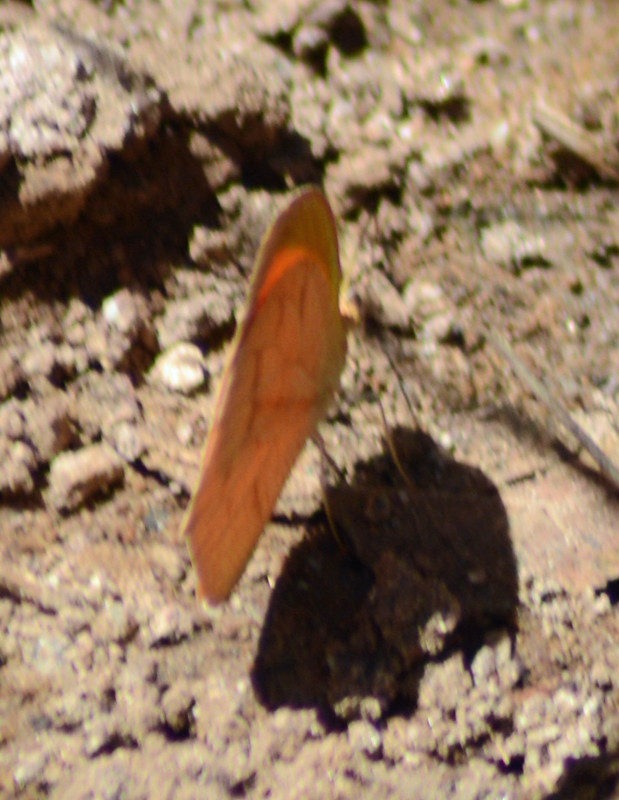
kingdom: Animalia
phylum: Arthropoda
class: Insecta
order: Lepidoptera
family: Pieridae
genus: Pyrisitia
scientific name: Pyrisitia proterpia
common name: Tailed orange
